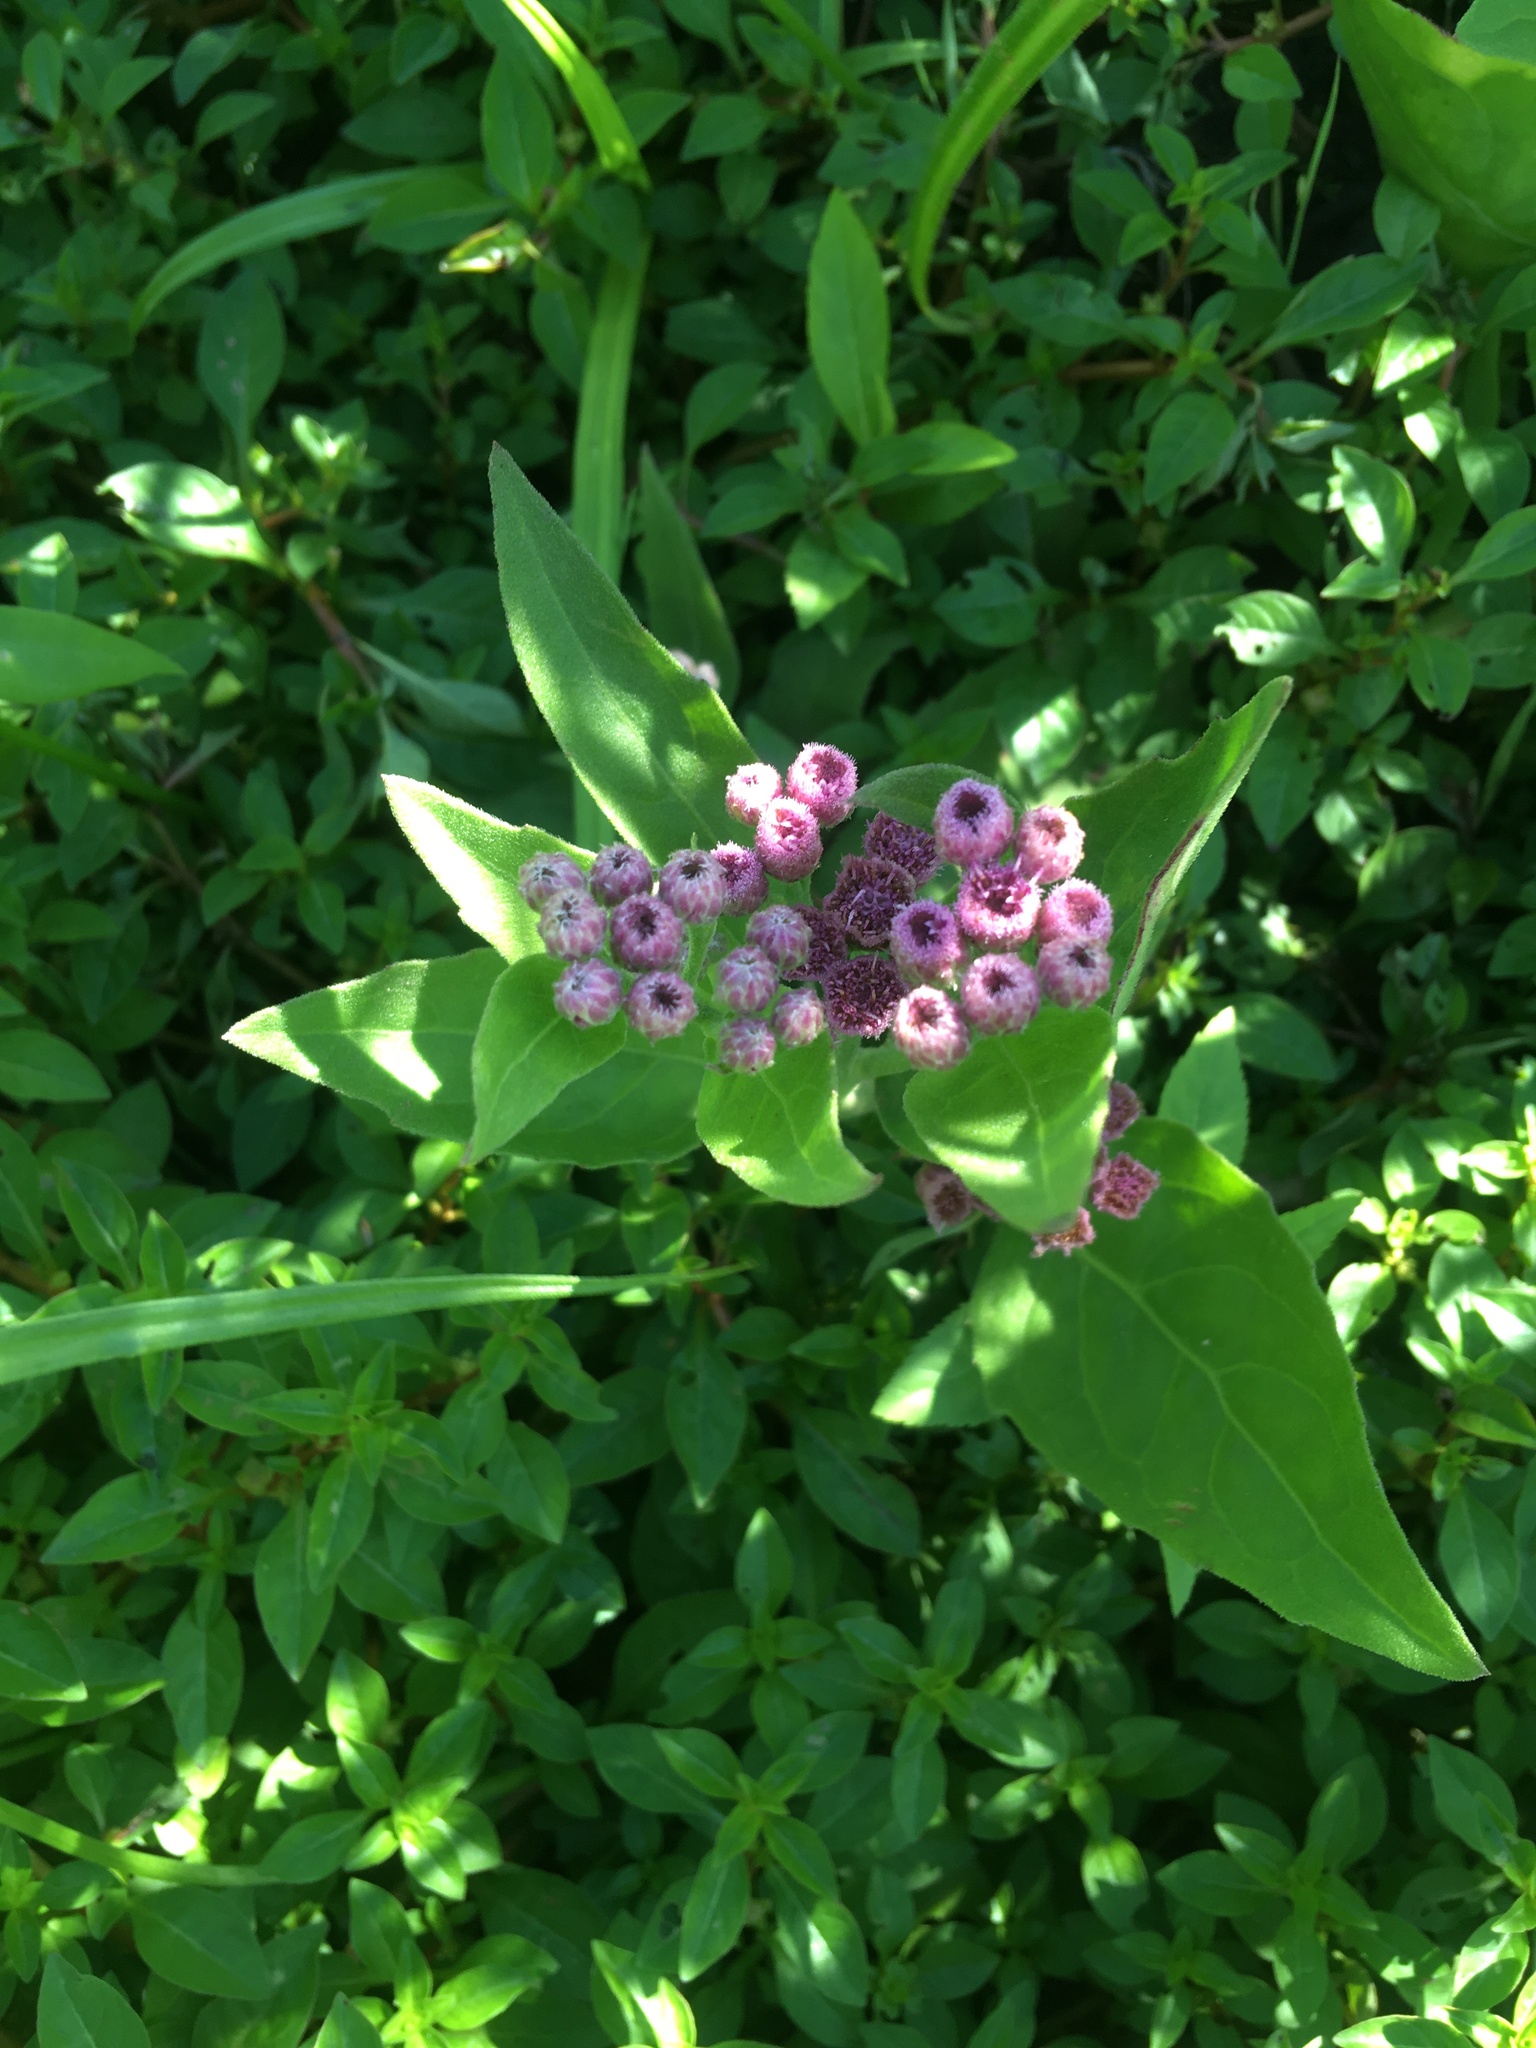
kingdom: Plantae
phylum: Tracheophyta
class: Magnoliopsida
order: Asterales
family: Asteraceae
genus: Pluchea
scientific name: Pluchea odorata
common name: Saltmarsh fleabane
